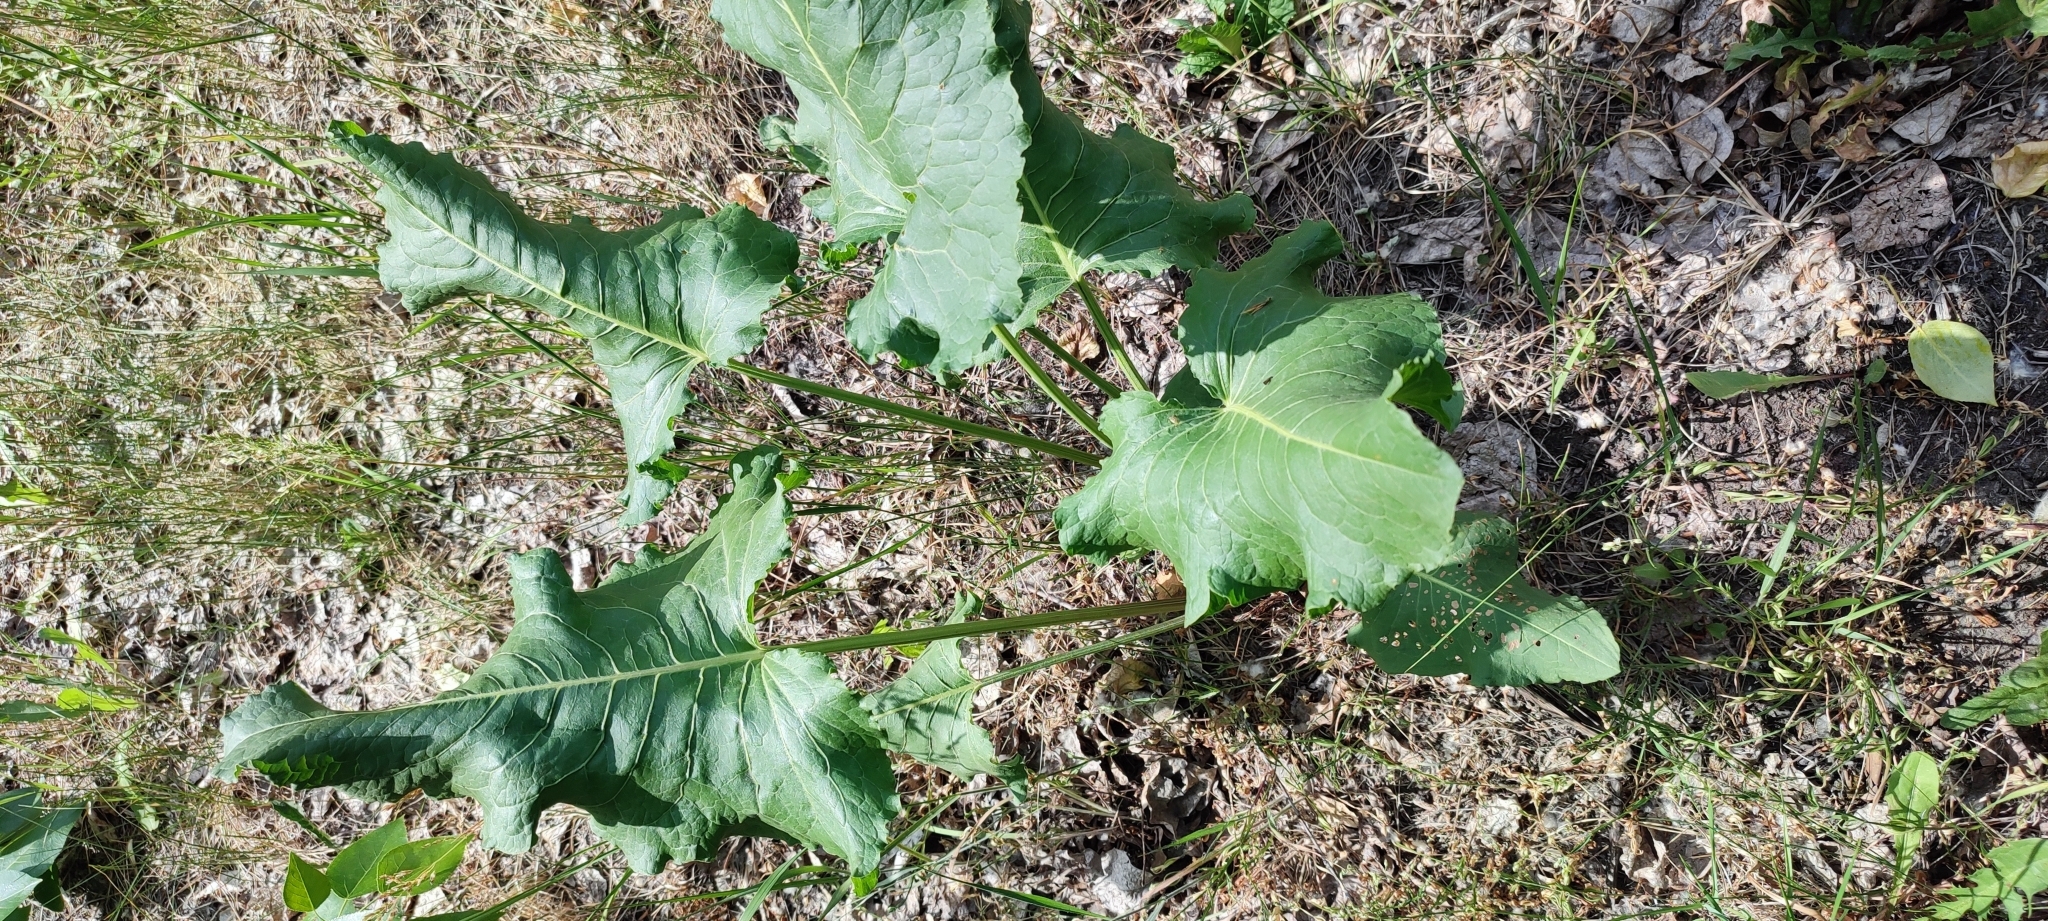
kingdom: Plantae
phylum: Tracheophyta
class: Magnoliopsida
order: Caryophyllales
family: Polygonaceae
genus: Rumex
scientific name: Rumex confertus
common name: Russian dock
